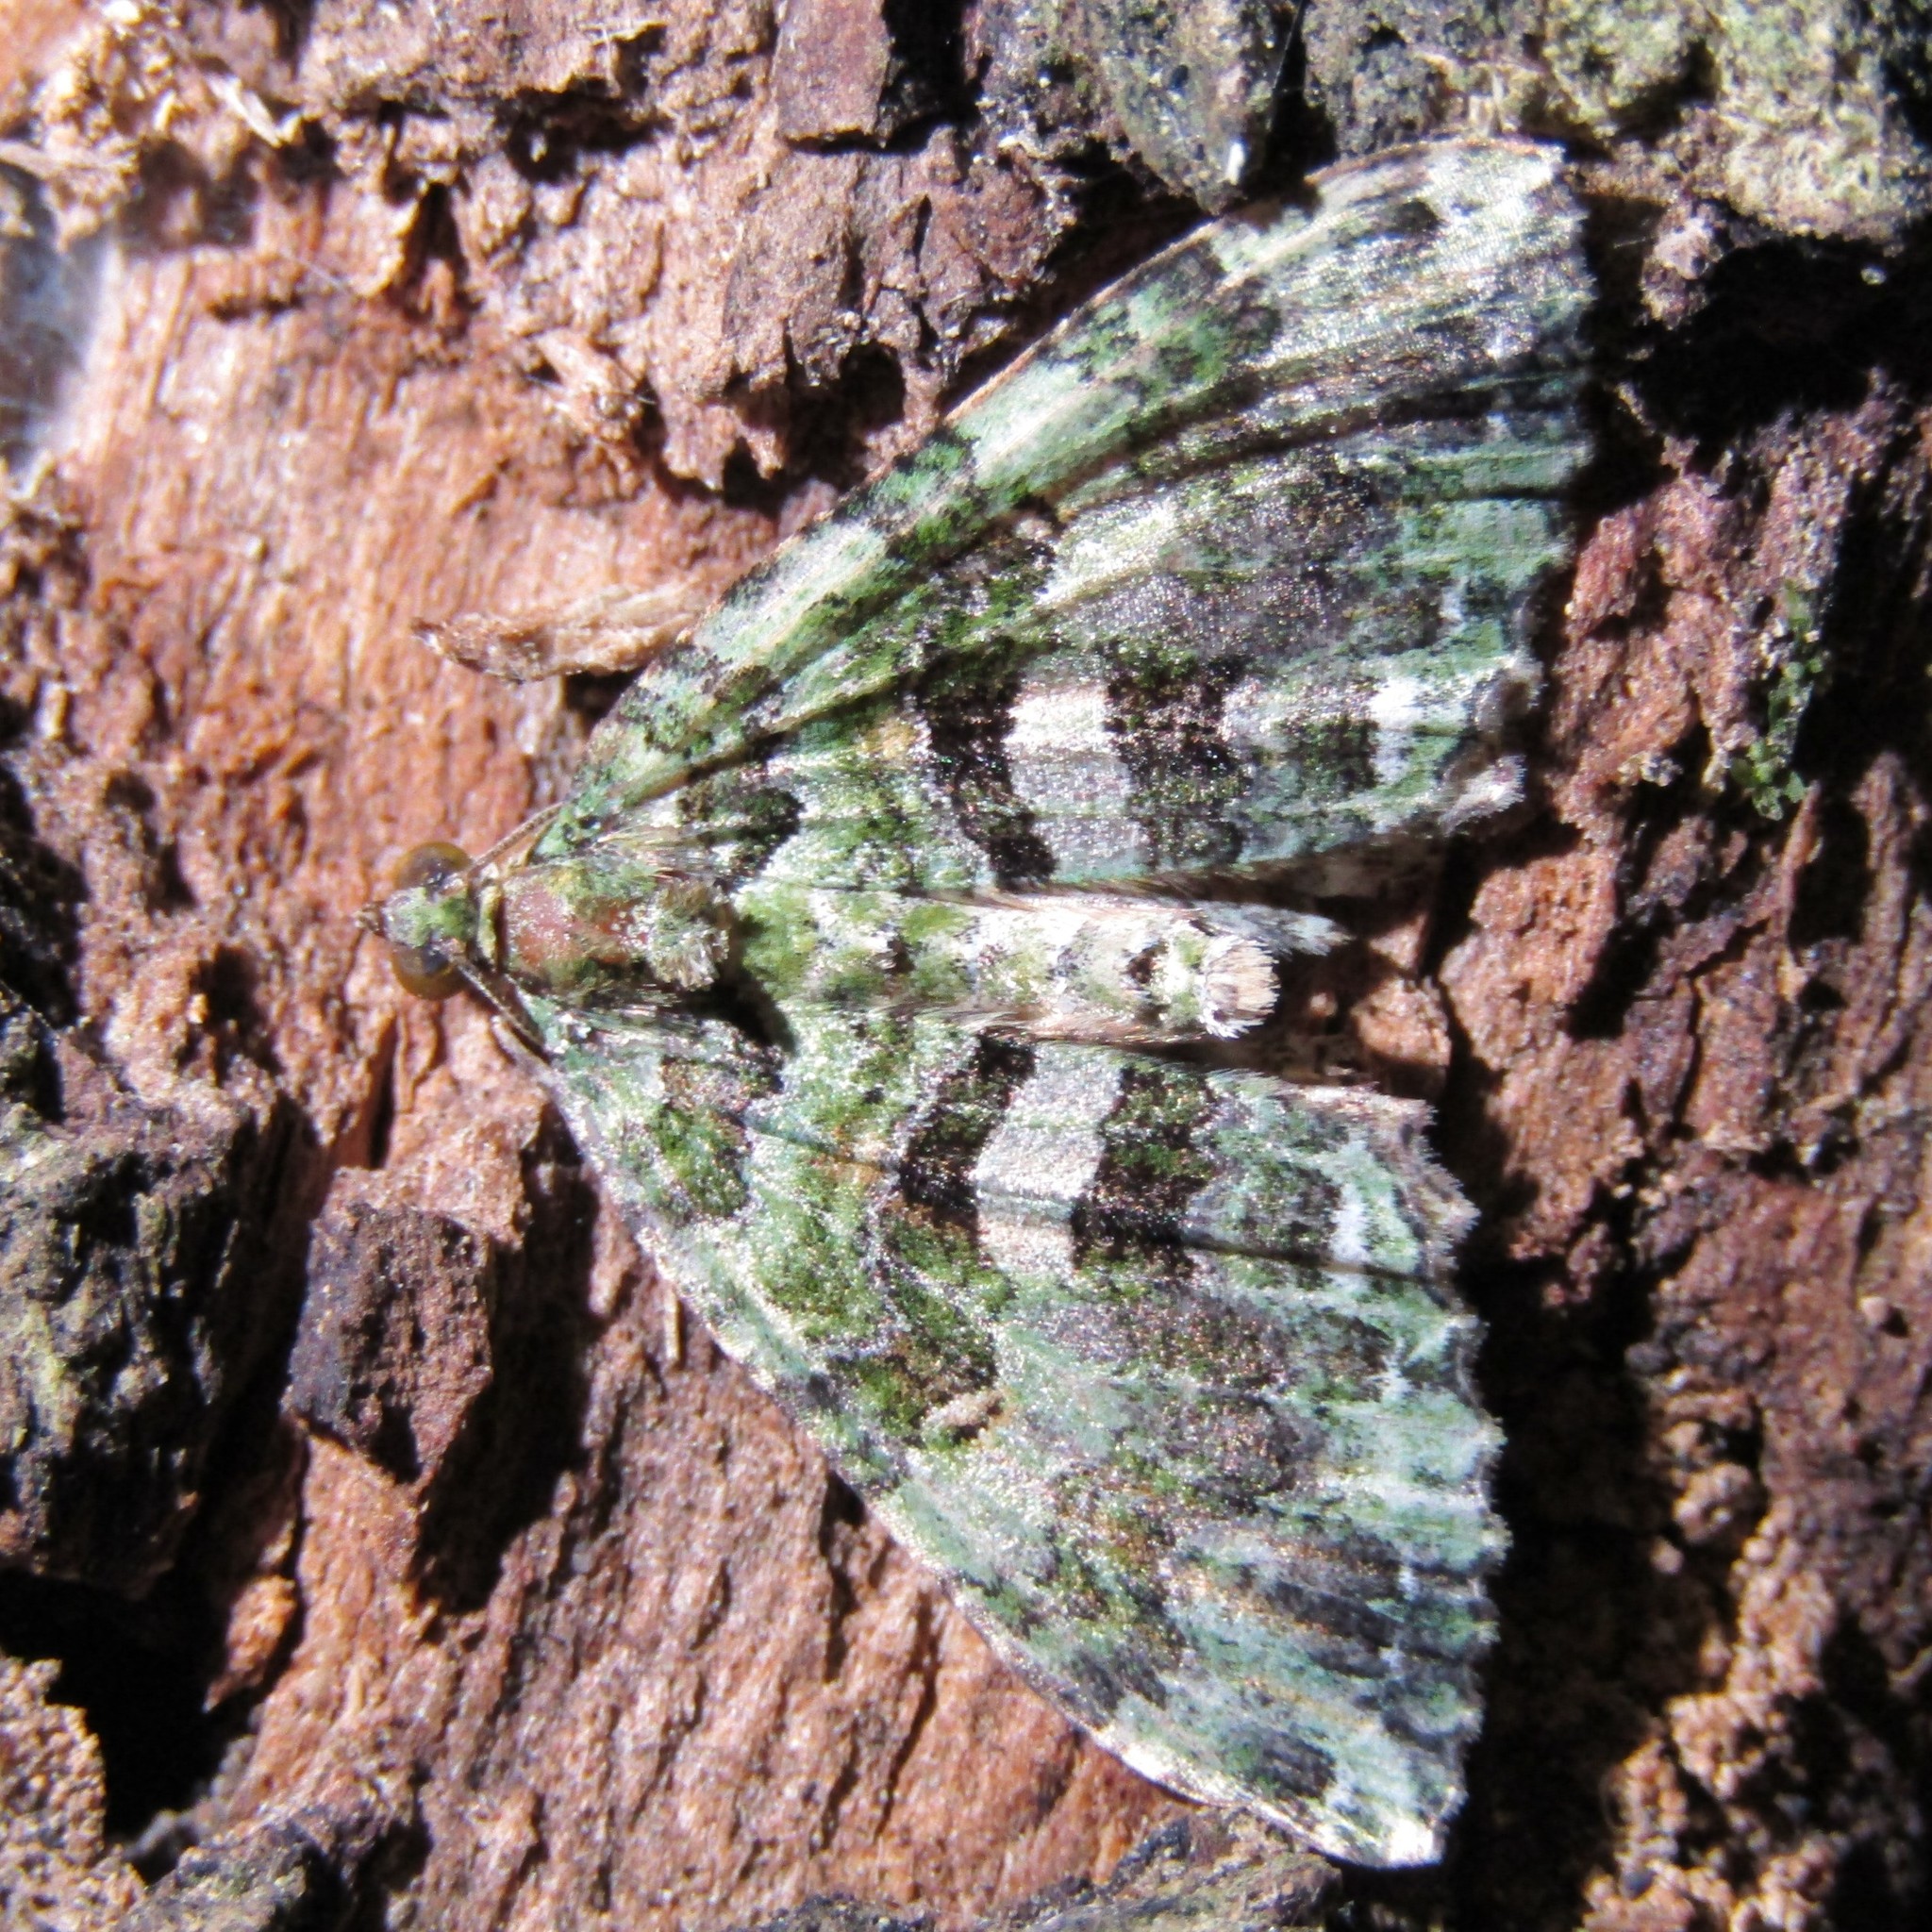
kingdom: Animalia
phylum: Arthropoda
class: Insecta
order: Lepidoptera
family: Geometridae
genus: Austrocidaria
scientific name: Austrocidaria similata
